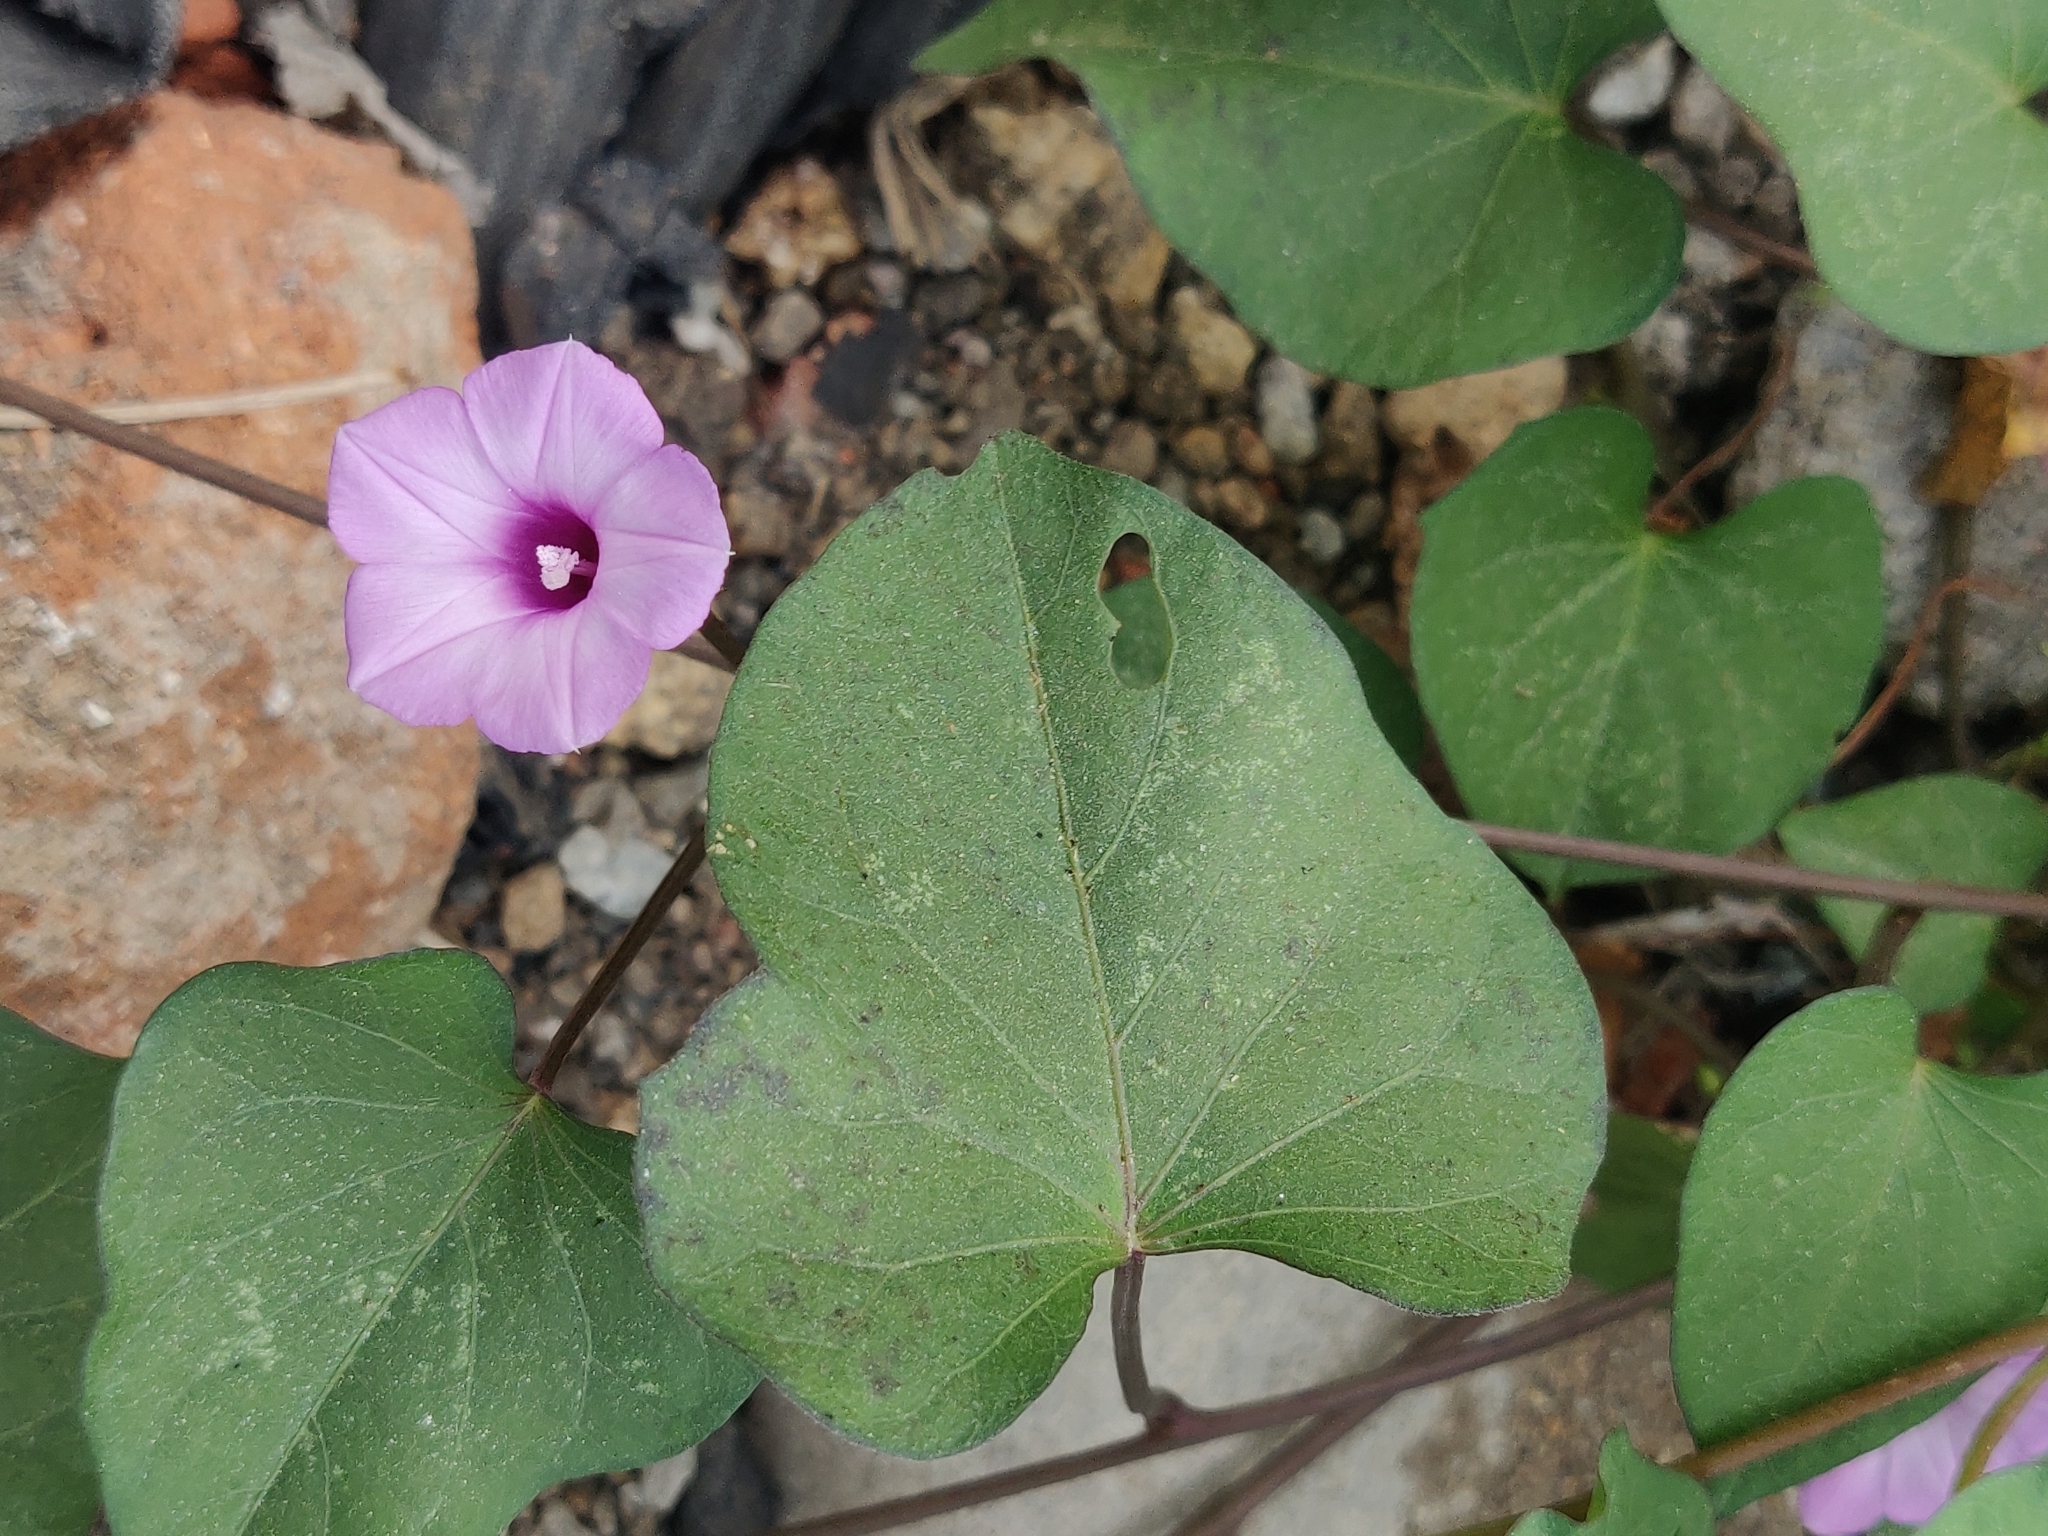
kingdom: Plantae
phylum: Tracheophyta
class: Magnoliopsida
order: Solanales
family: Convolvulaceae
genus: Ipomoea
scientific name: Ipomoea
